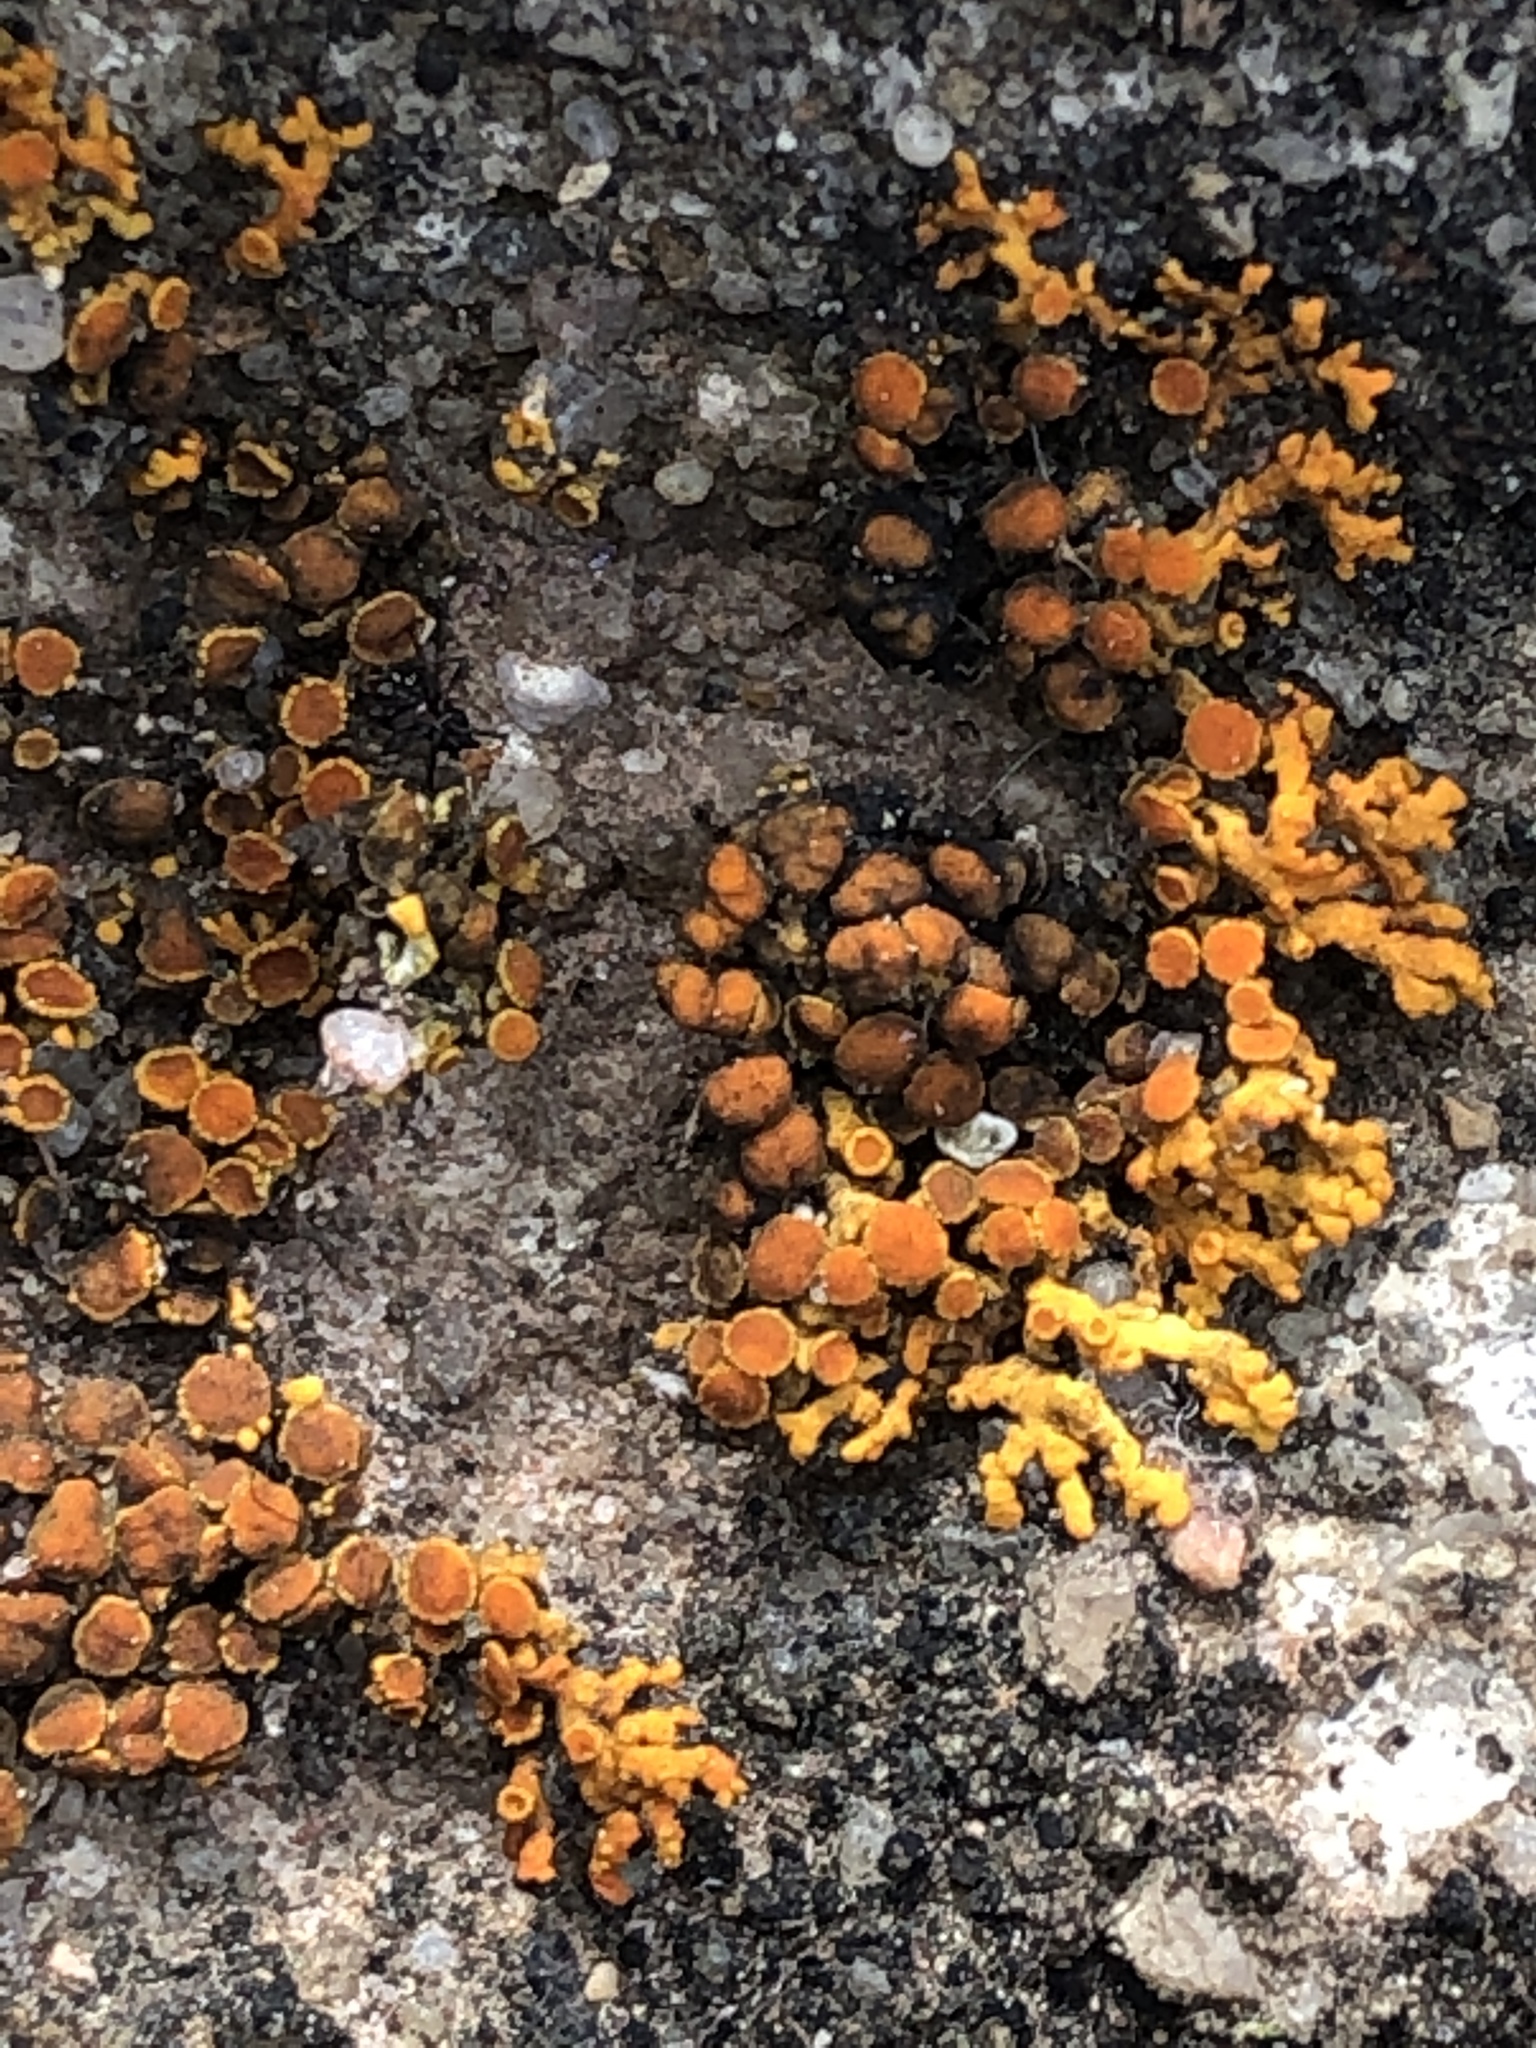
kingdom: Fungi
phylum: Ascomycota
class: Lecanoromycetes
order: Teloschistales
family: Teloschistaceae
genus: Xanthoria
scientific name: Xanthoria elegans
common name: Elegant sunburst lichen
